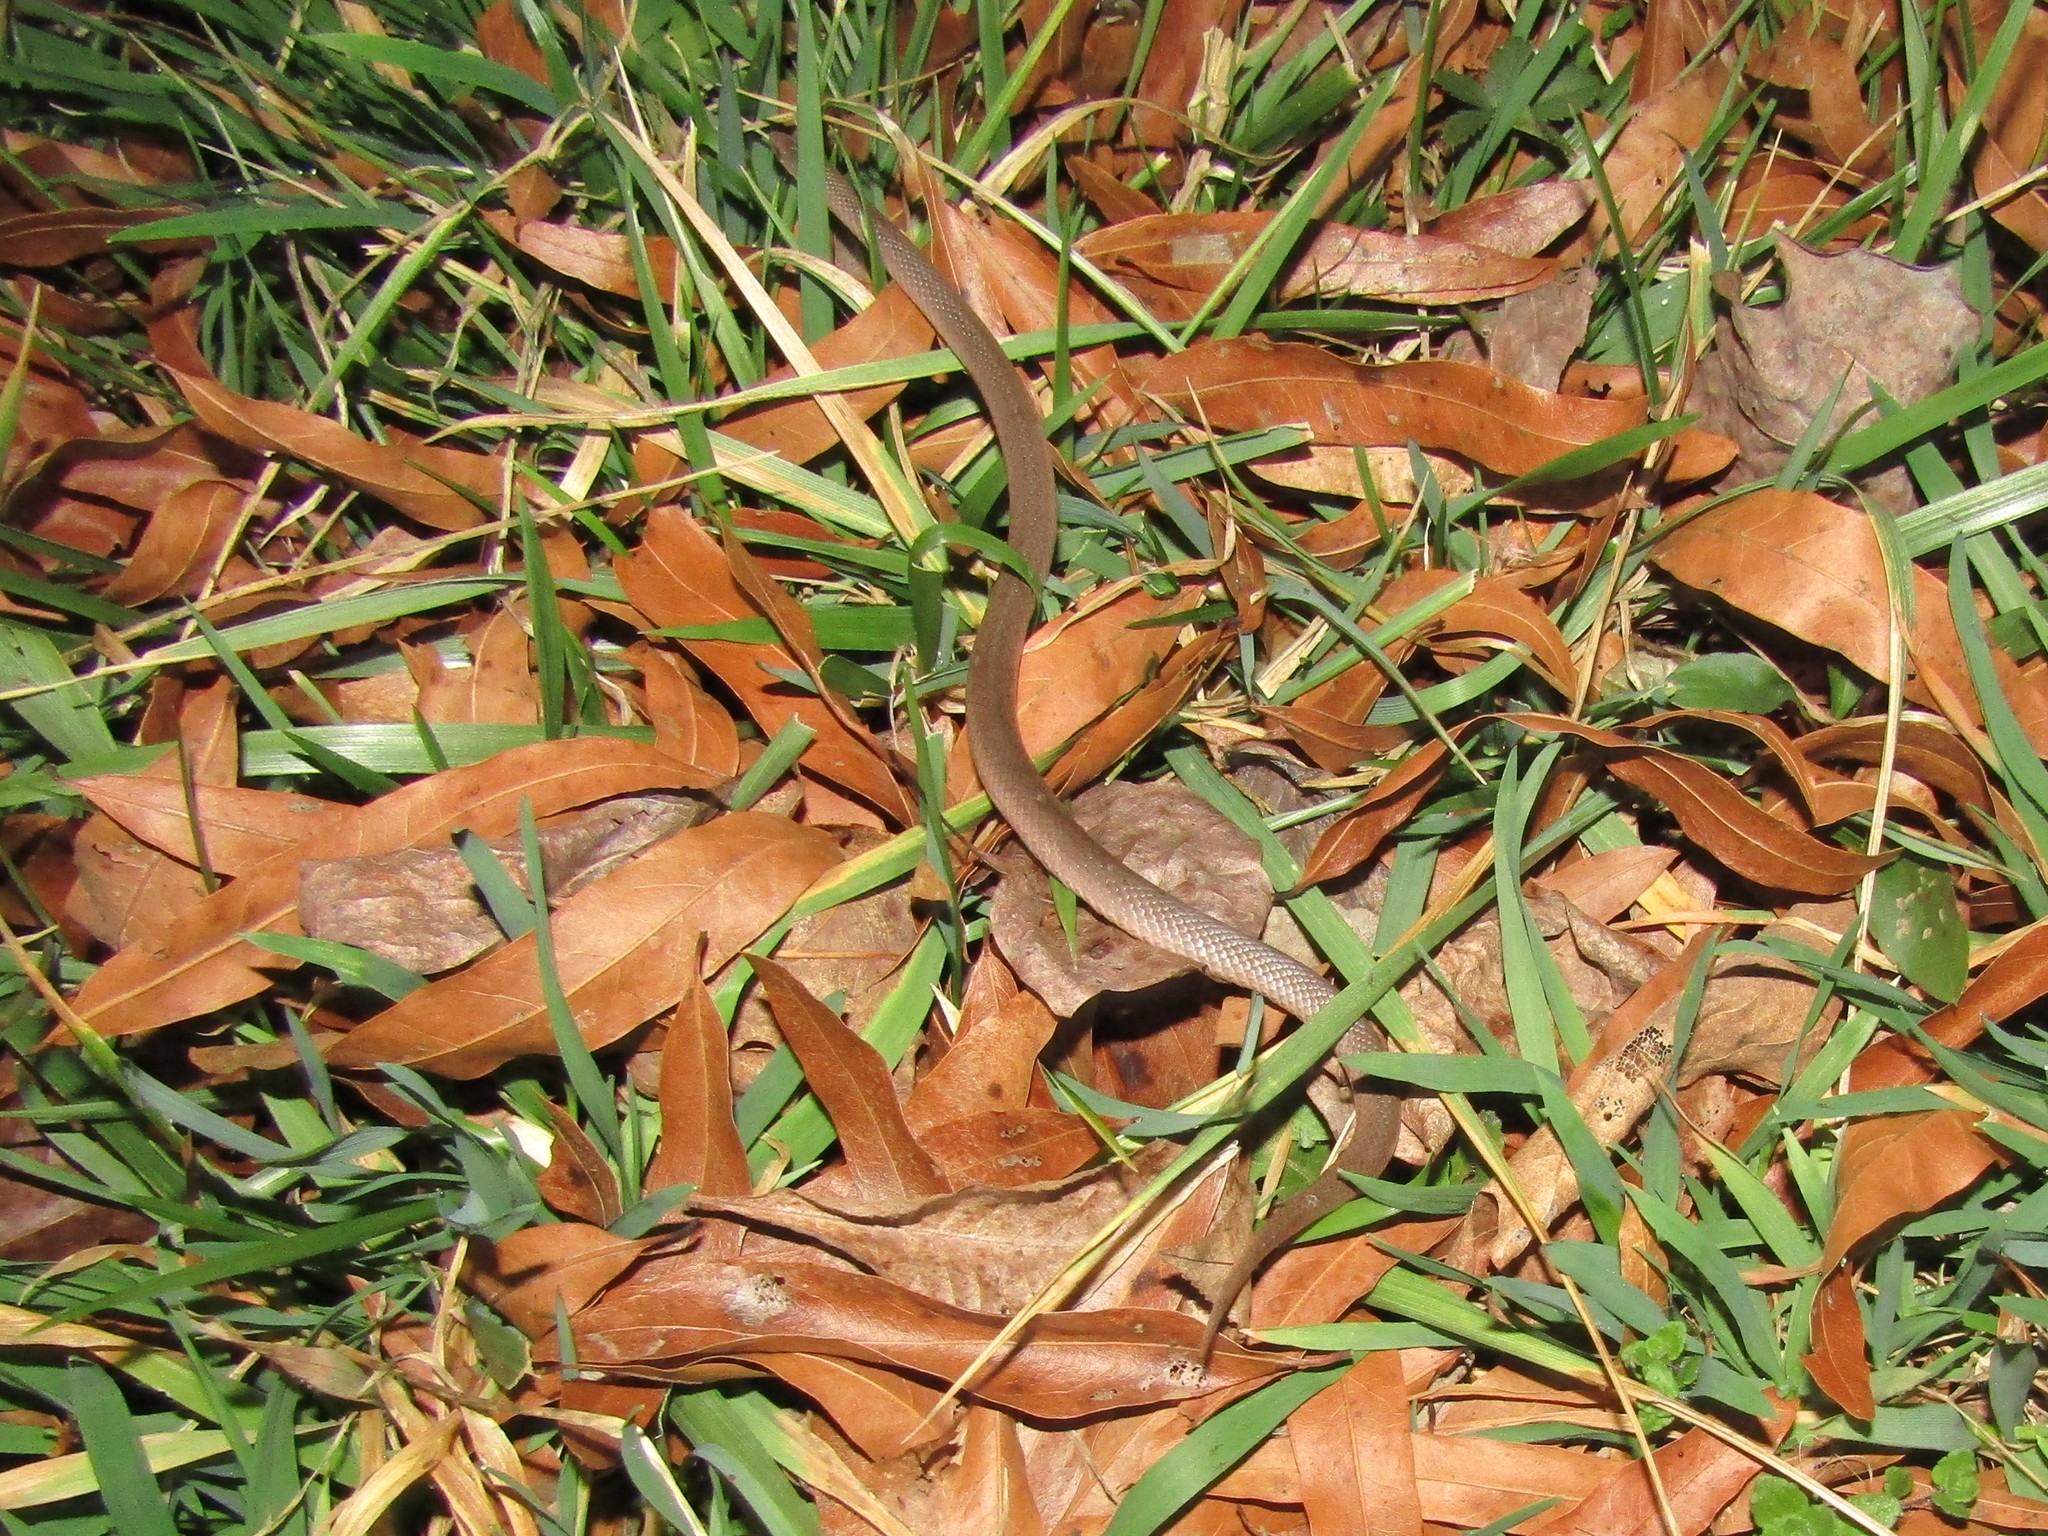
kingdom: Animalia
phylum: Chordata
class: Squamata
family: Colubridae
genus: Virginia
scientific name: Virginia valeriae
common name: Smooth earth snake
